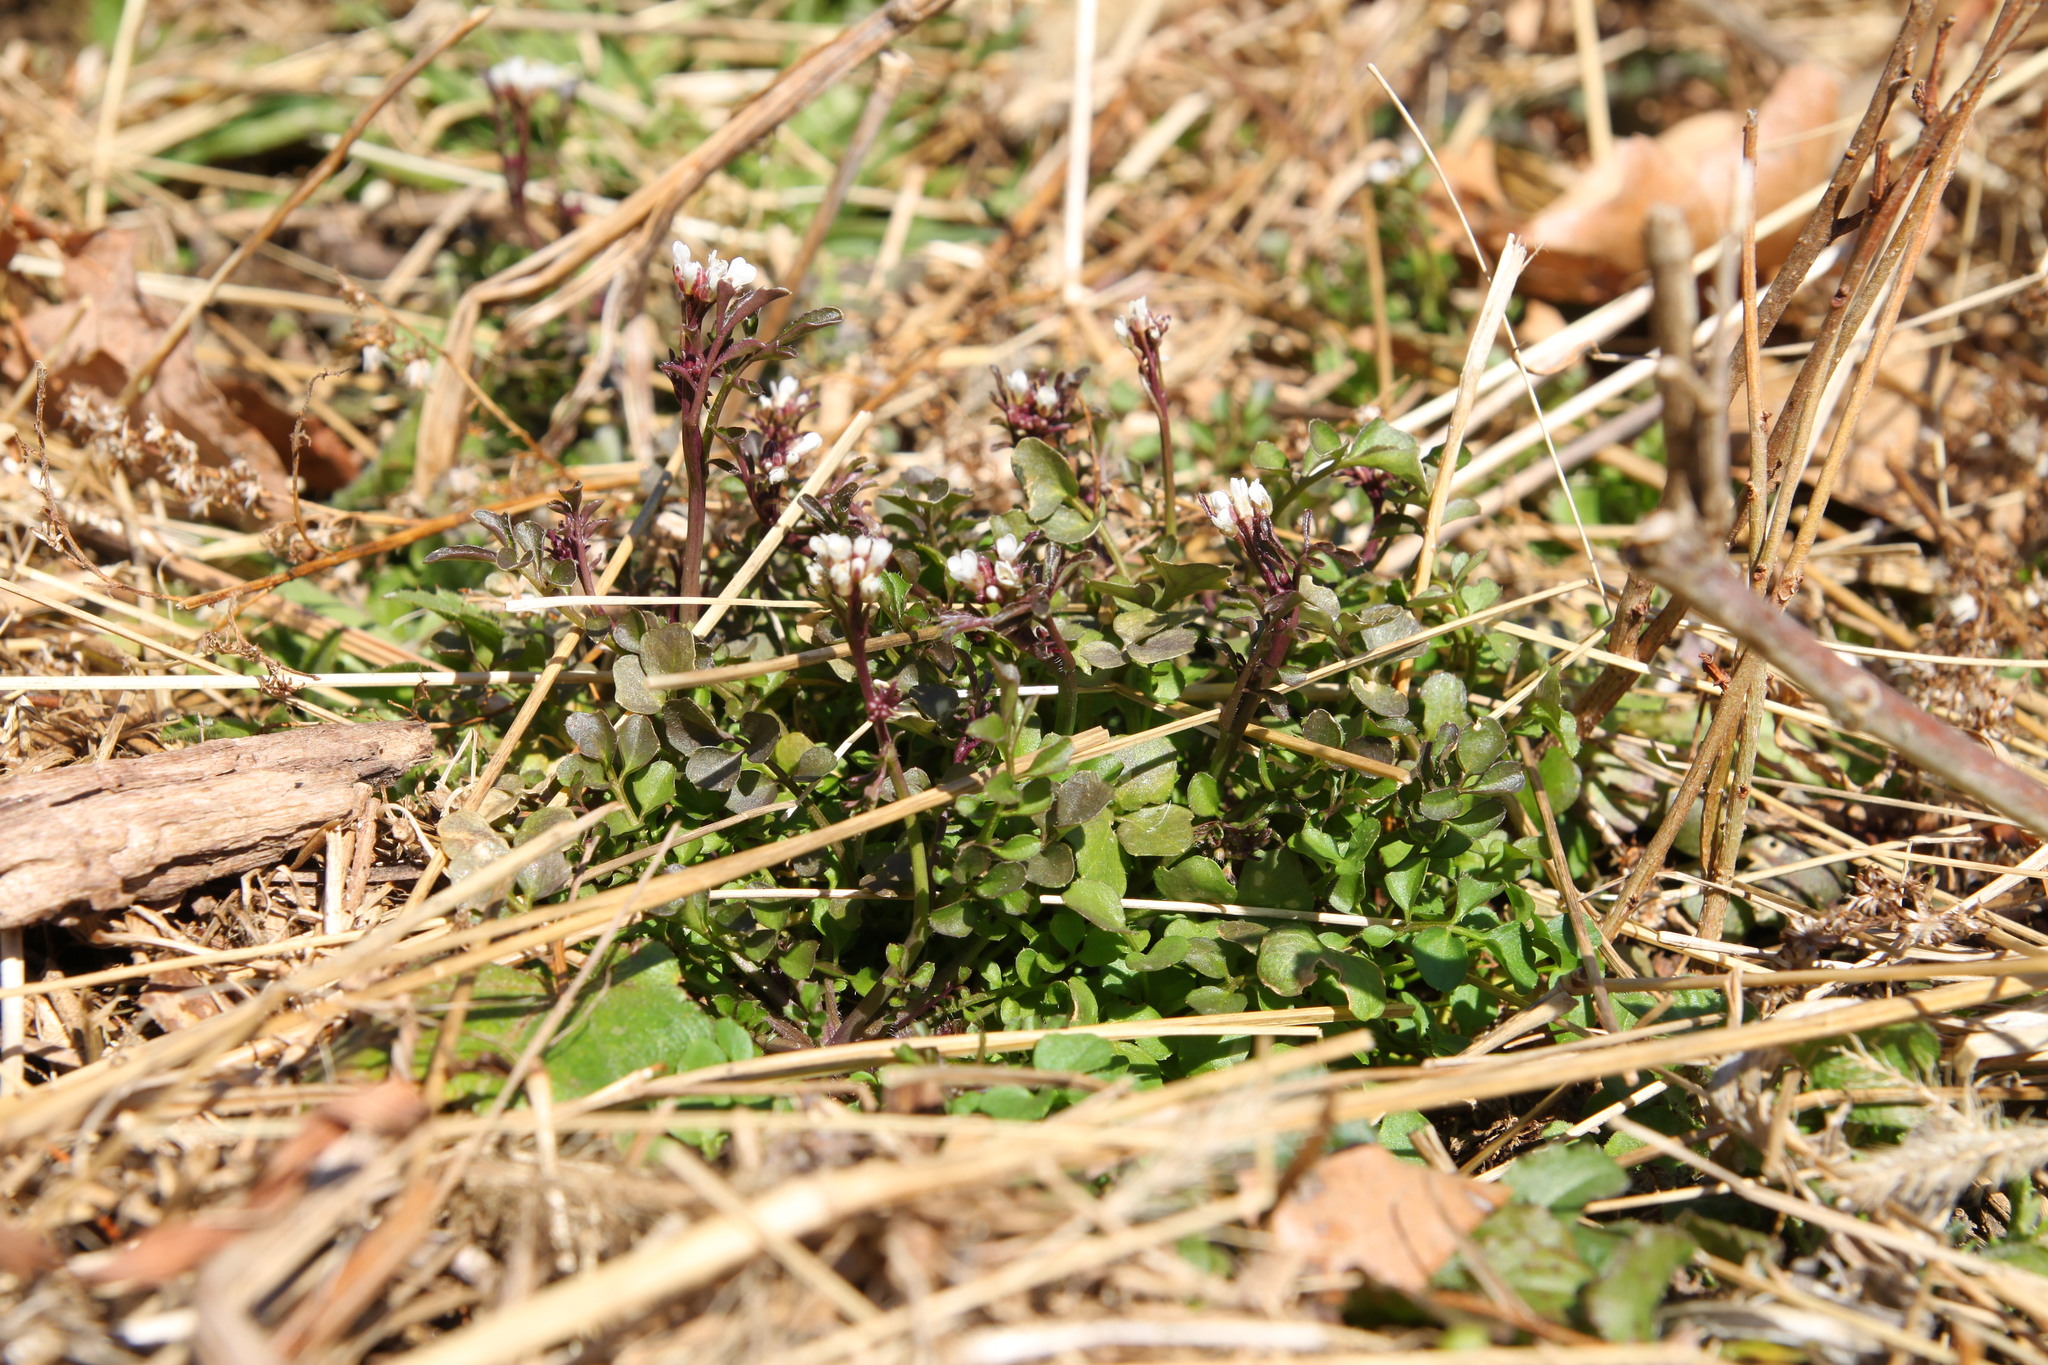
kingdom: Plantae
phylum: Tracheophyta
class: Magnoliopsida
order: Brassicales
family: Brassicaceae
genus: Cardamine
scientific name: Cardamine hirsuta
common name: Hairy bittercress
